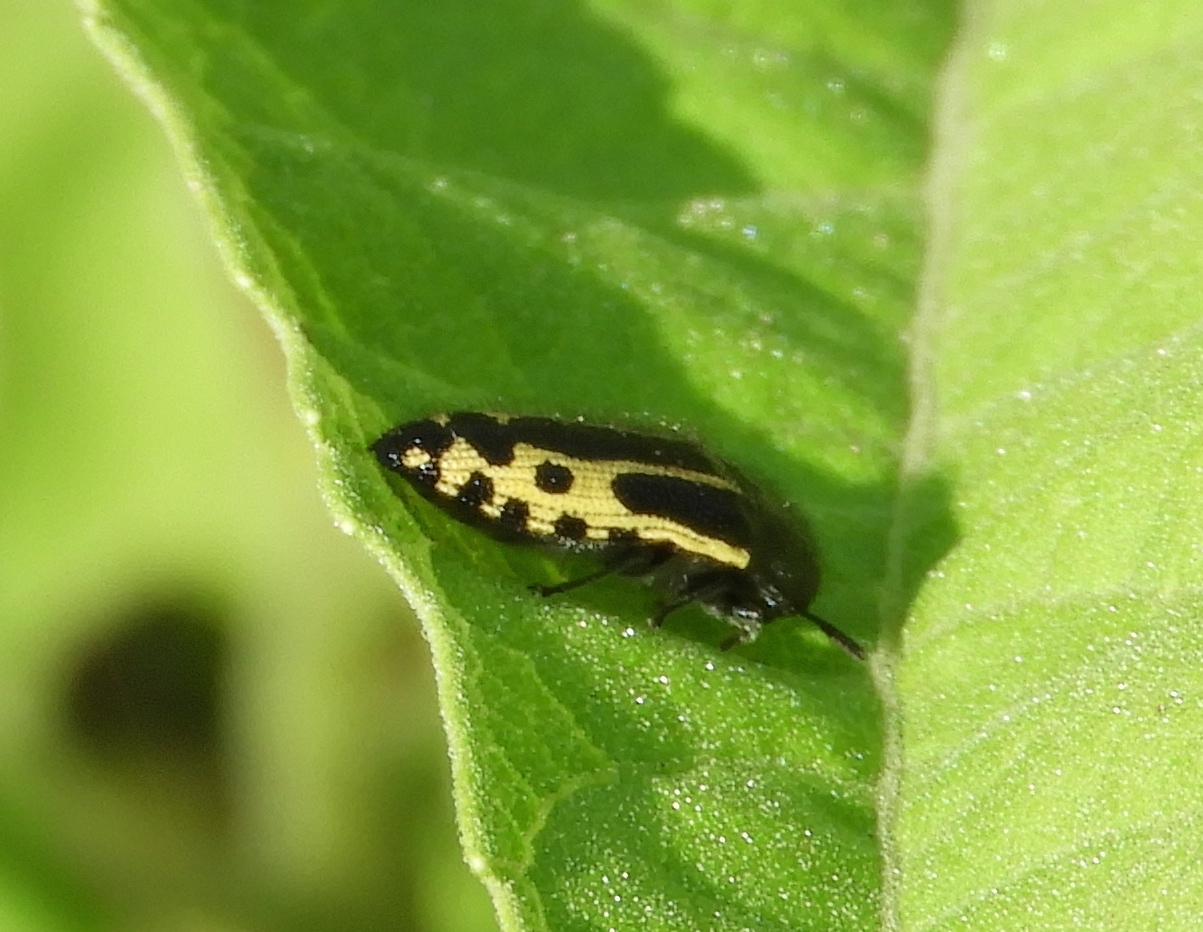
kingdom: Animalia
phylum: Arthropoda
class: Insecta
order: Coleoptera
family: Buprestidae
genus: Acmaeodera
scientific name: Acmaeodera scalaris
